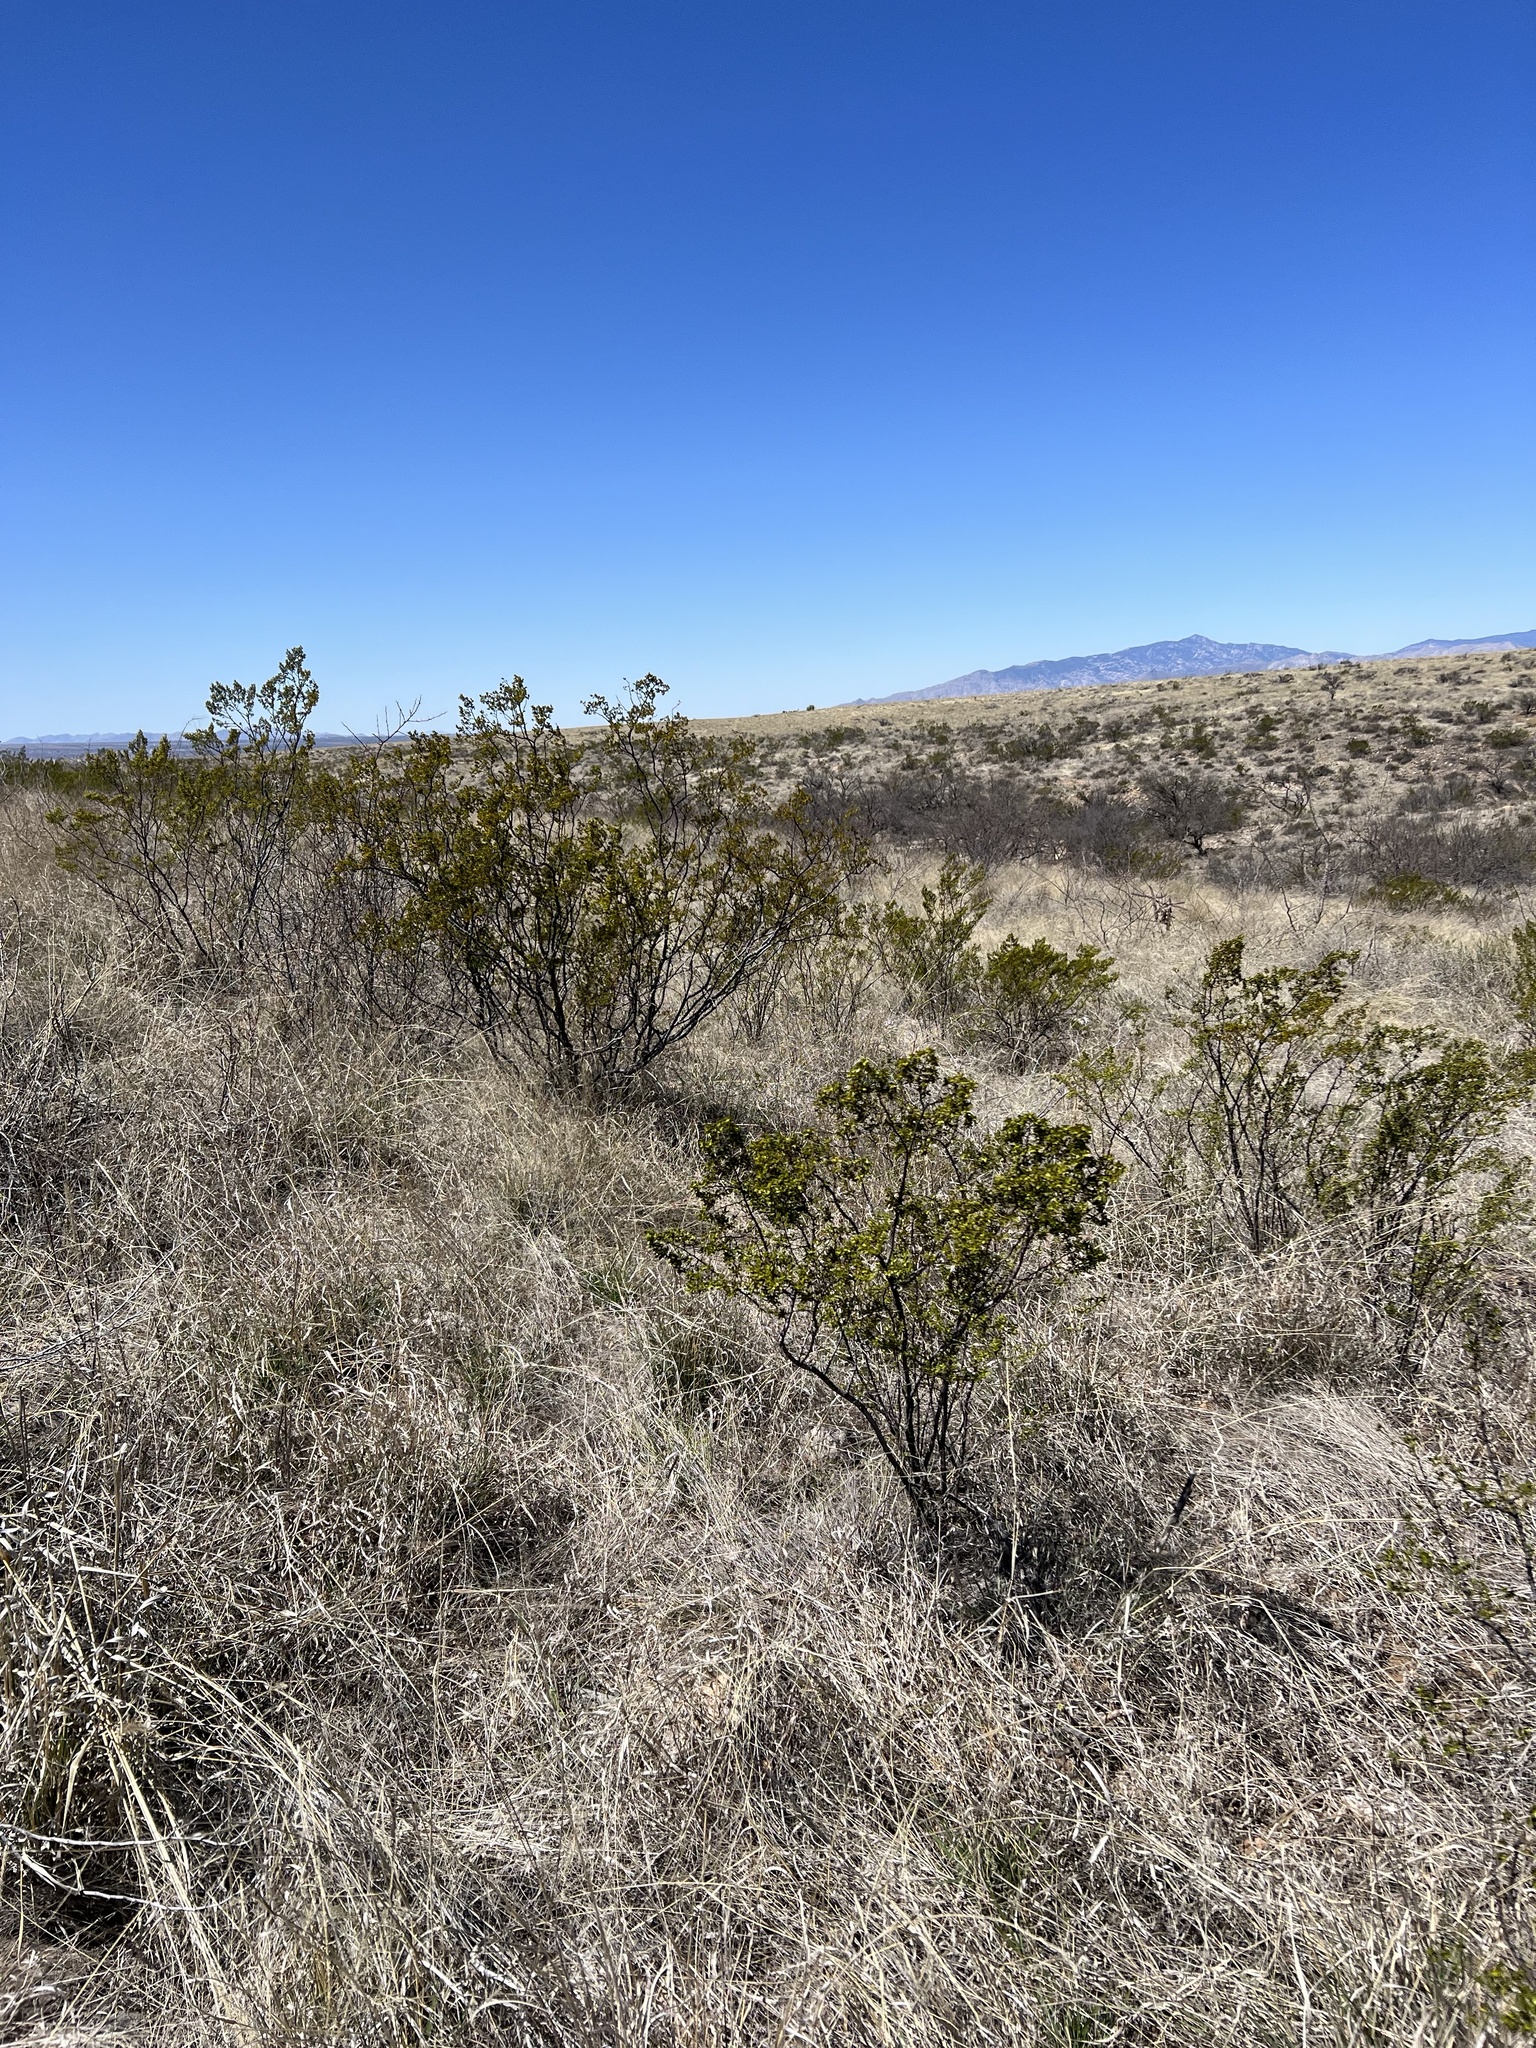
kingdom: Plantae
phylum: Tracheophyta
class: Magnoliopsida
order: Zygophyllales
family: Zygophyllaceae
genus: Larrea
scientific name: Larrea tridentata
